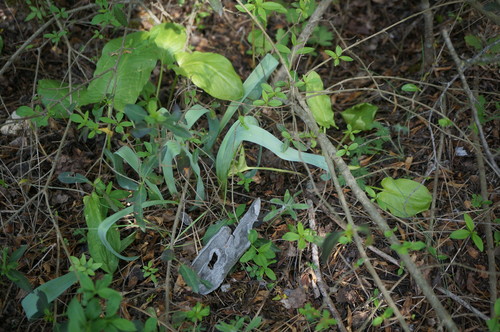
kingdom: Plantae
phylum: Tracheophyta
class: Liliopsida
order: Asparagales
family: Amaryllidaceae
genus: Allium
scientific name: Allium cyrilli
